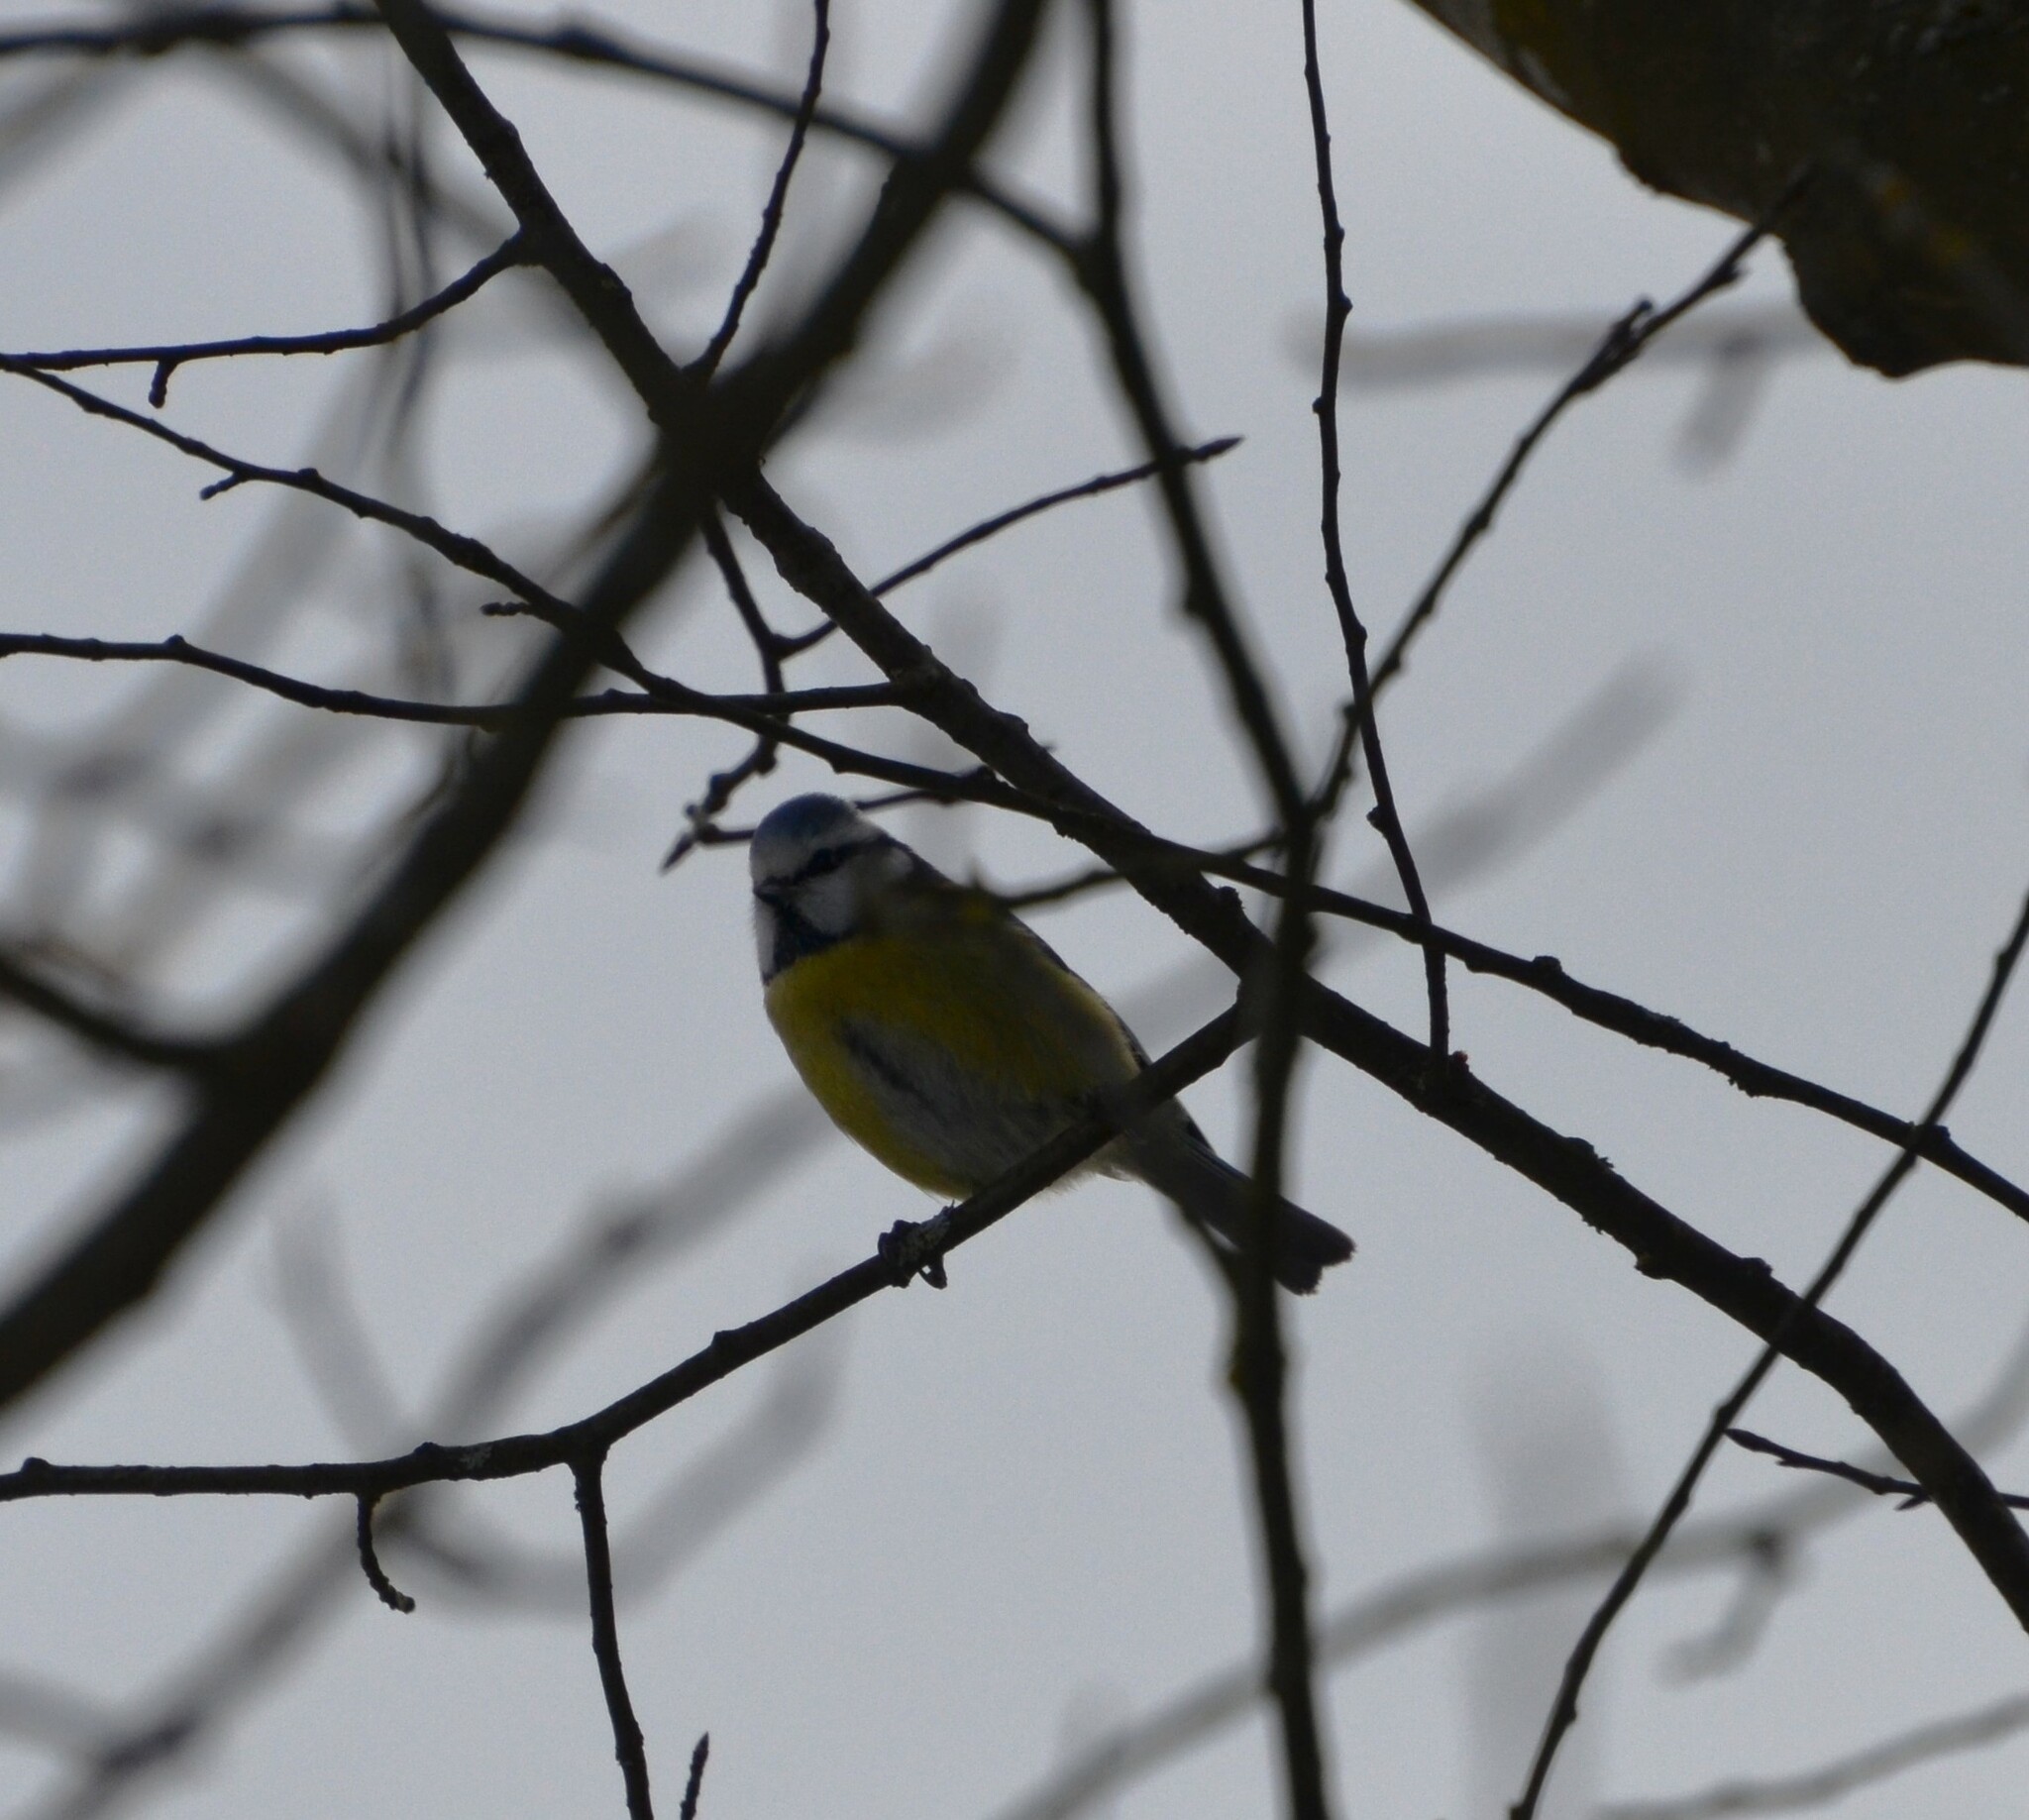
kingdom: Animalia
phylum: Chordata
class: Aves
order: Passeriformes
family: Paridae
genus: Cyanistes
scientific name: Cyanistes caeruleus
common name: Eurasian blue tit
